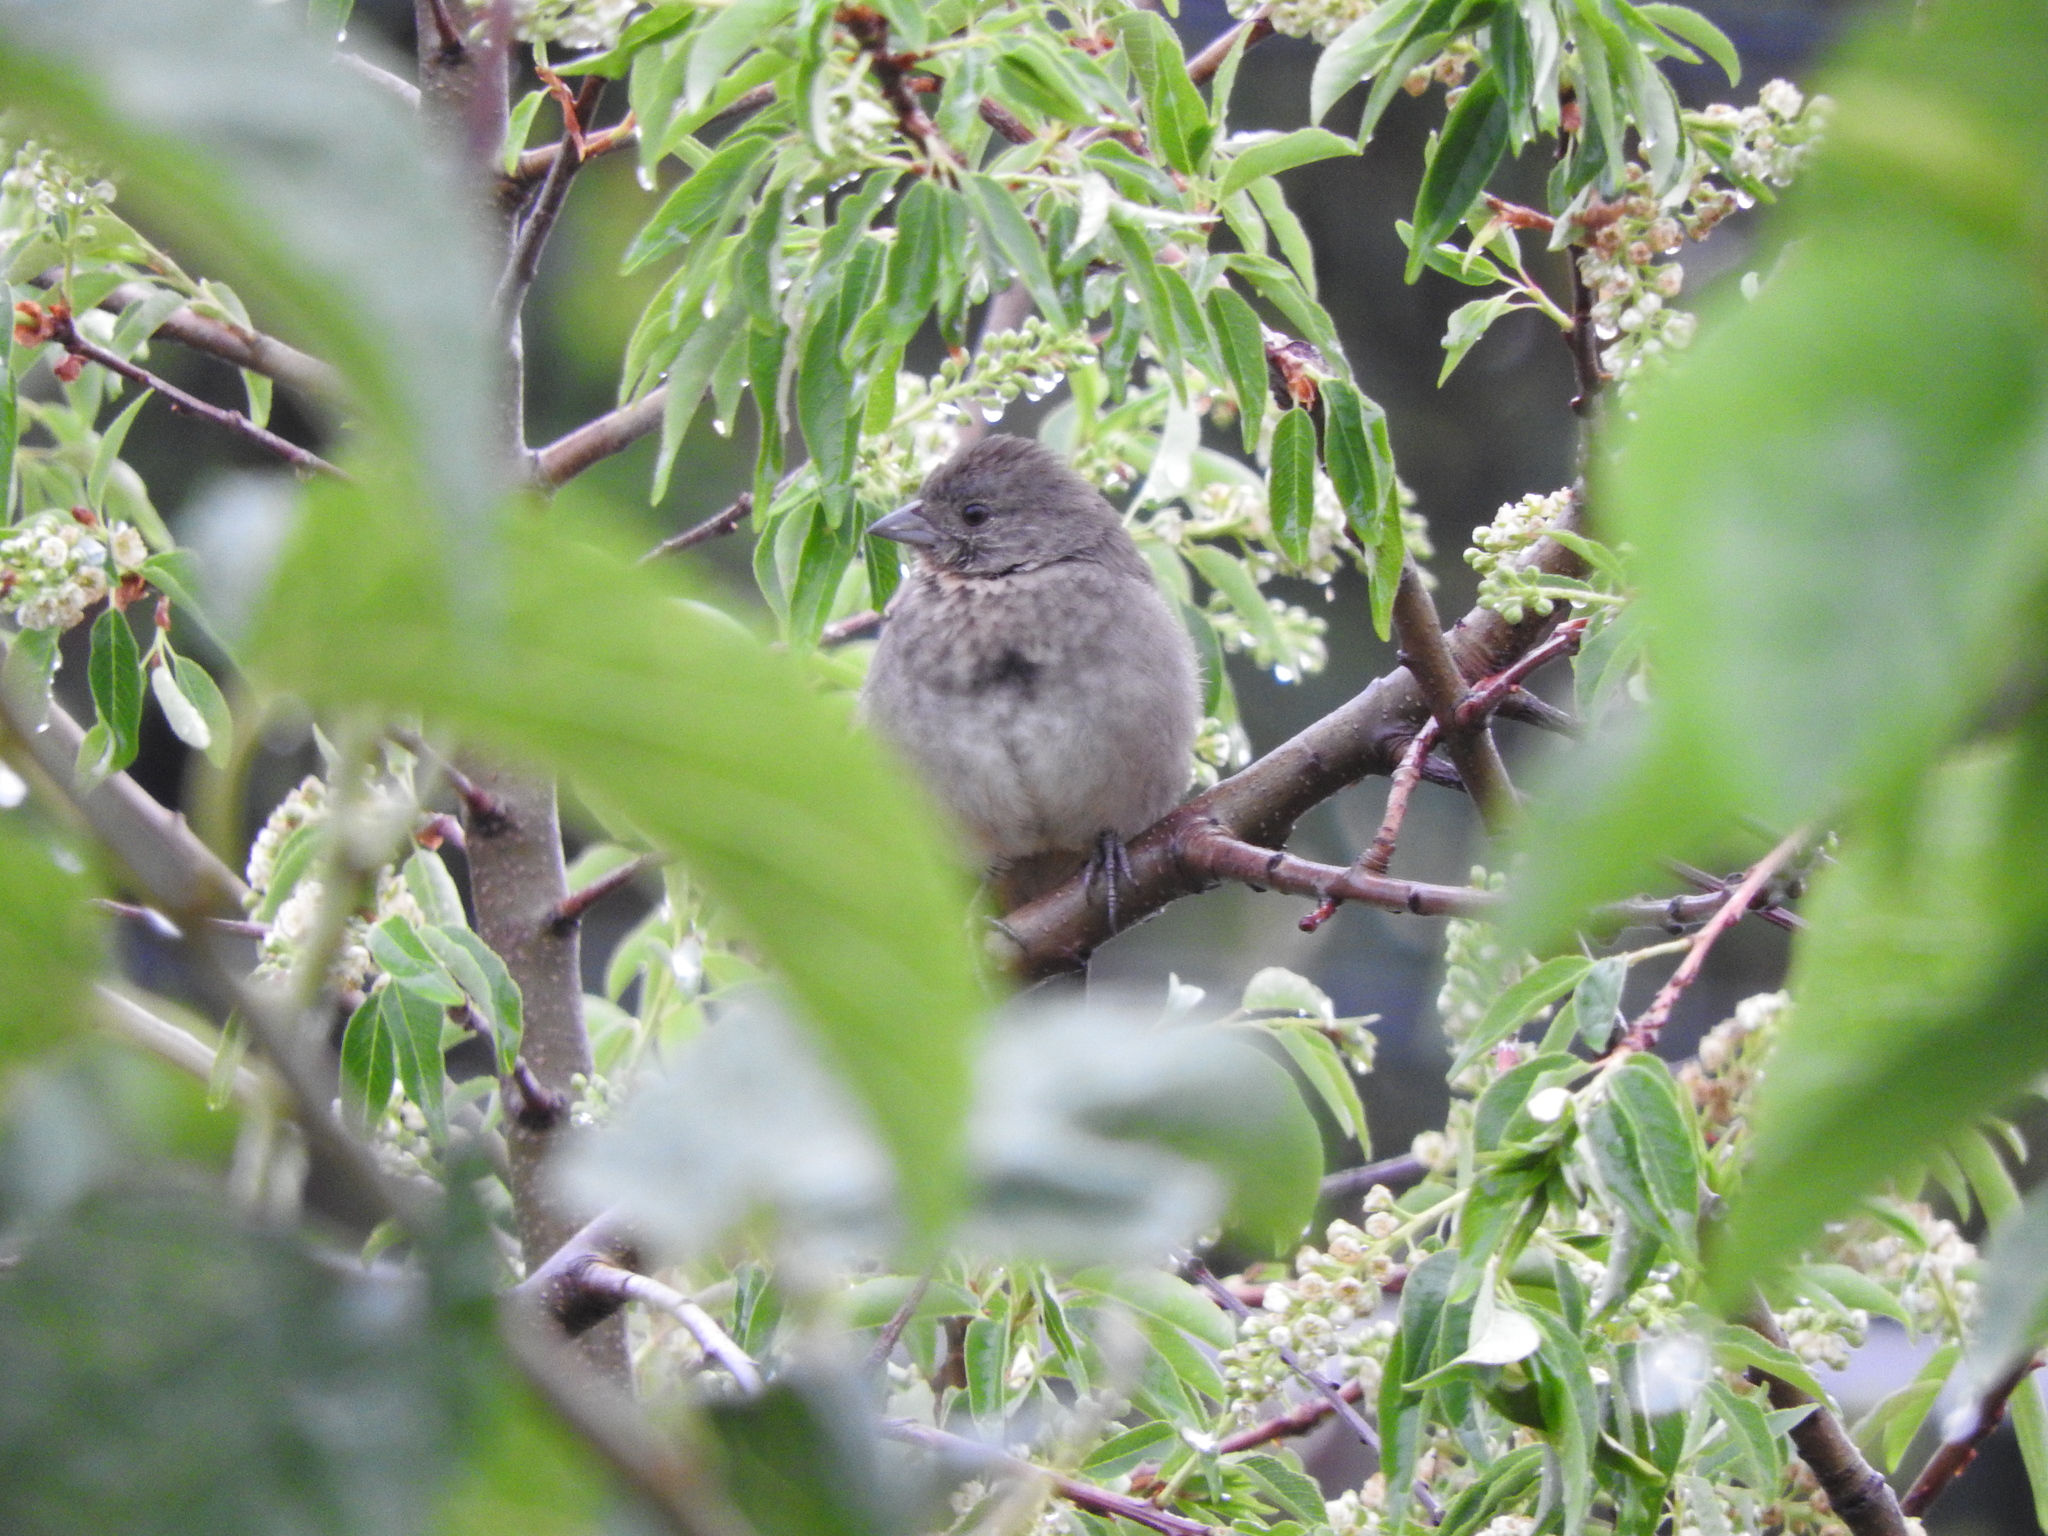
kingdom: Animalia
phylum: Chordata
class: Aves
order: Passeriformes
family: Passerellidae
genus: Melozone
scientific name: Melozone fusca
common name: Canyon towhee
